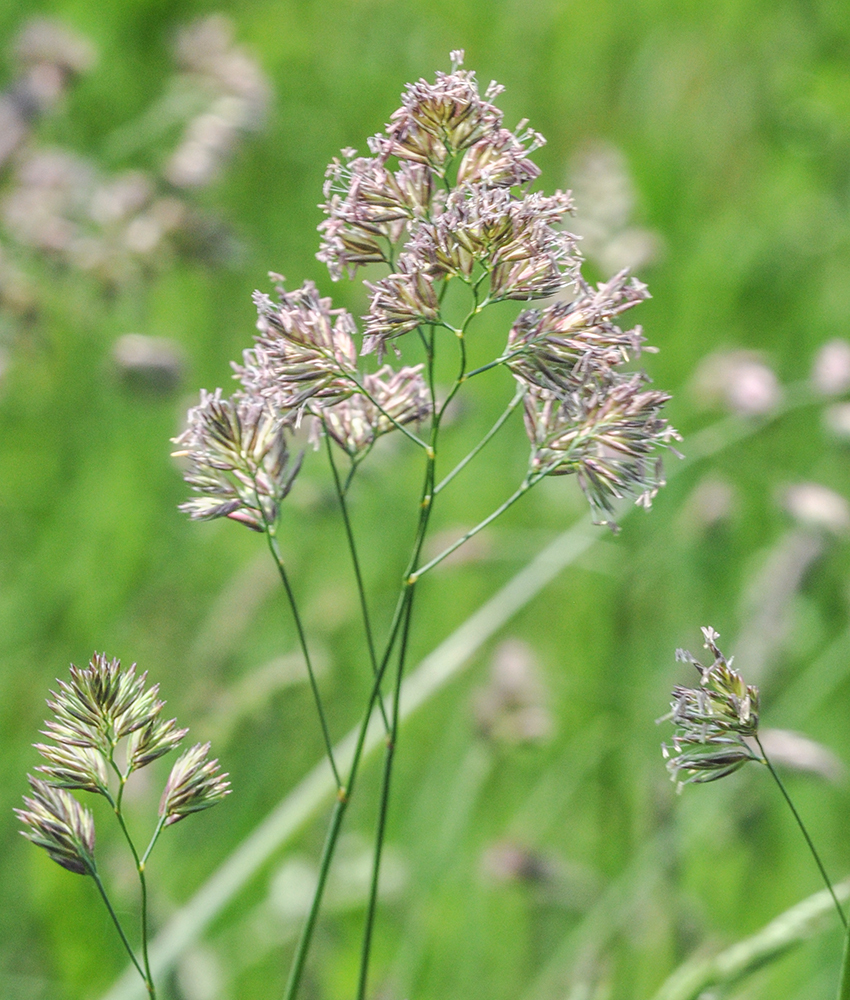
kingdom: Plantae
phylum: Tracheophyta
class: Liliopsida
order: Poales
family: Poaceae
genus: Dactylis
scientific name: Dactylis glomerata
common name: Orchardgrass
